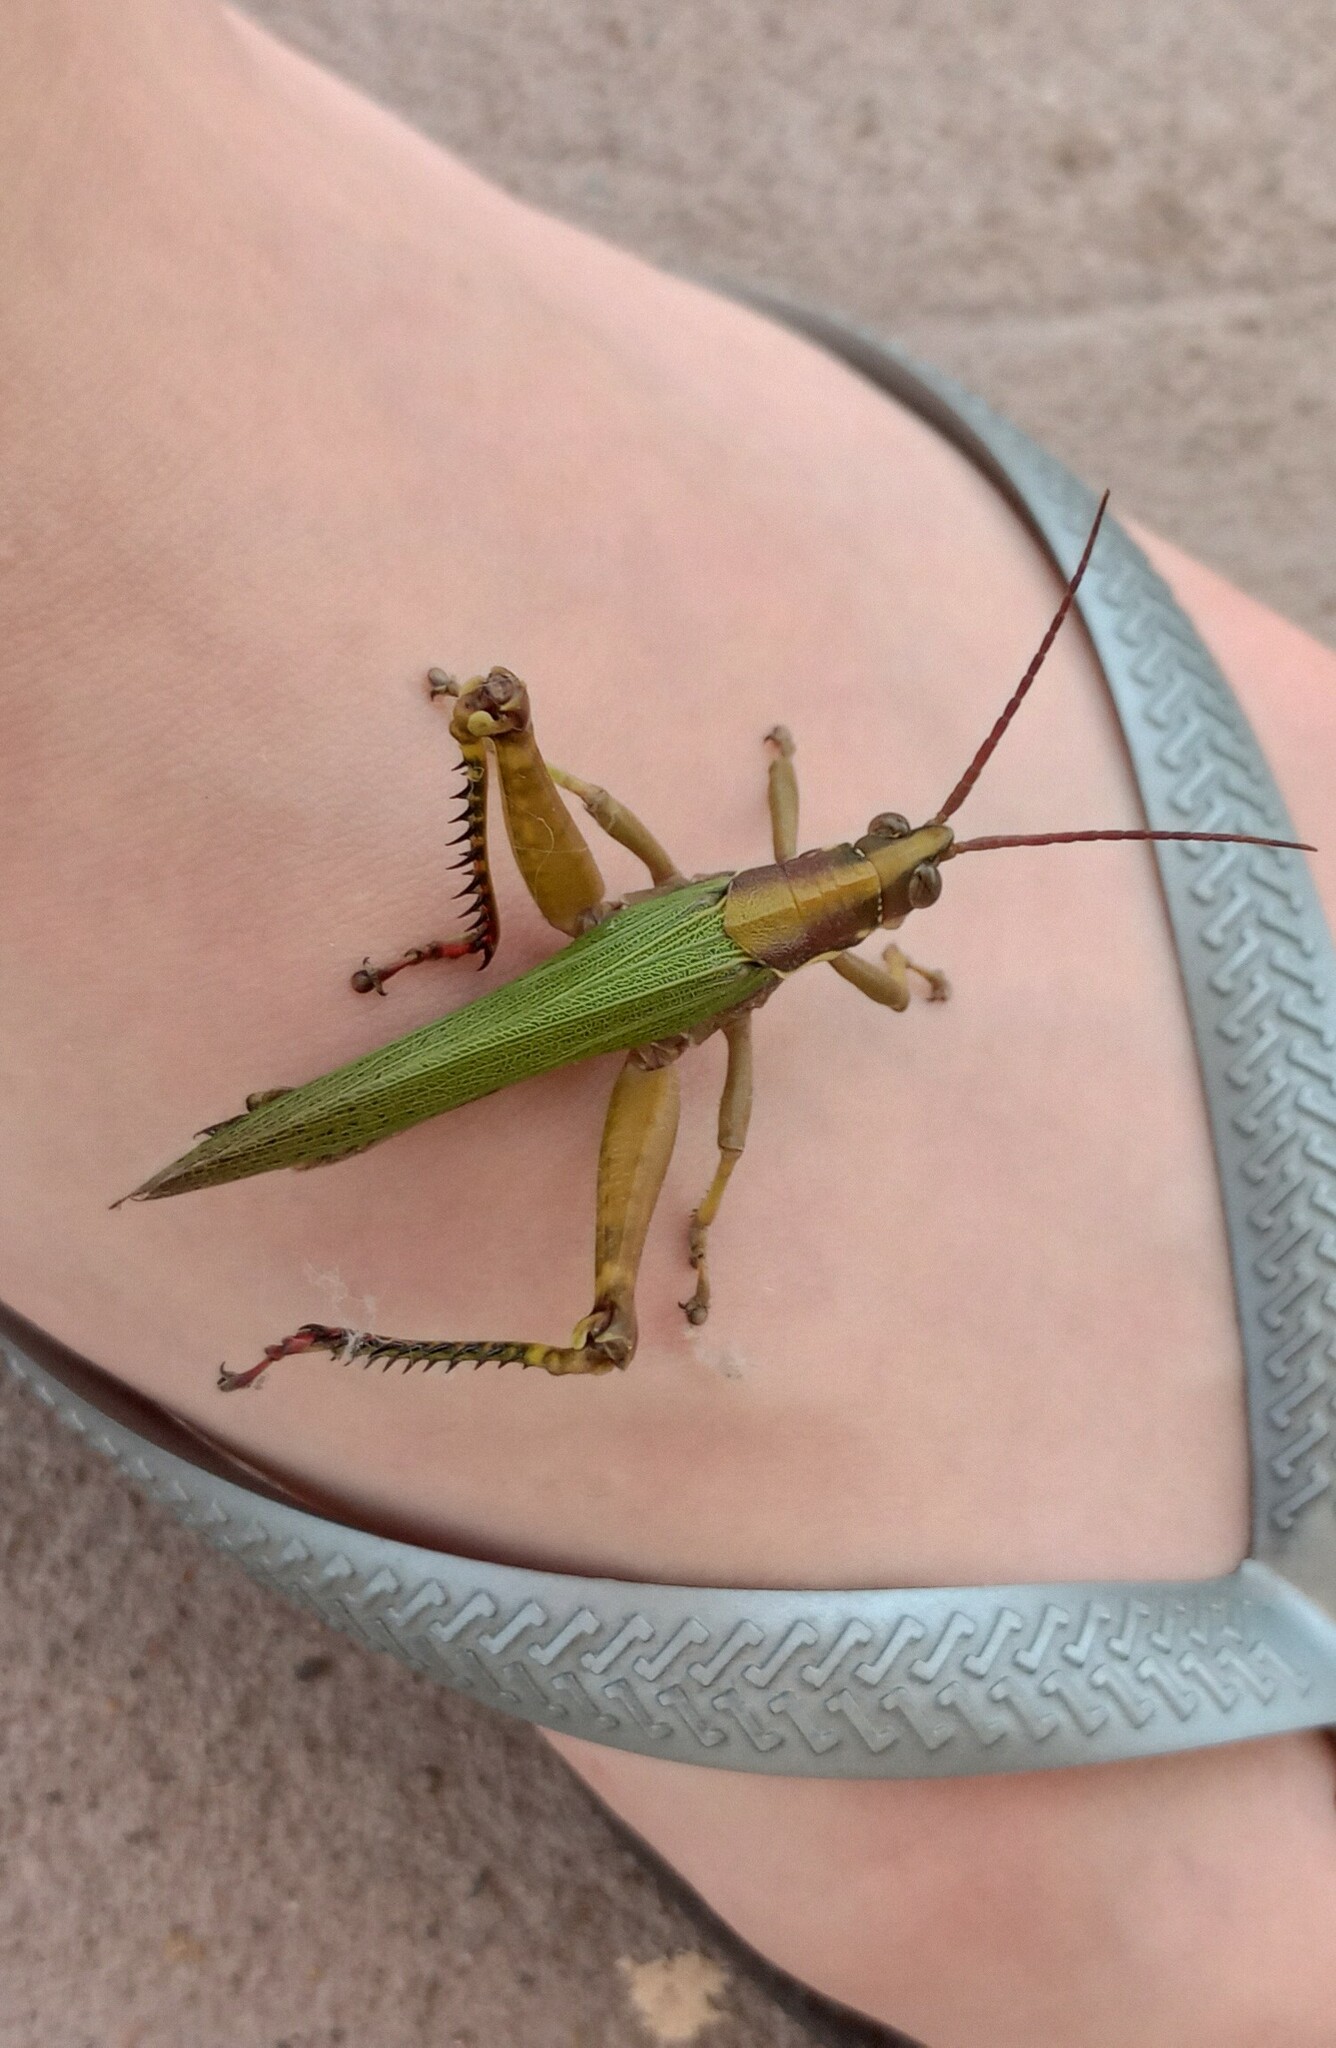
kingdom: Animalia
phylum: Arthropoda
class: Insecta
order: Orthoptera
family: Romaleidae
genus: Coryacris
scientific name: Coryacris angustipennis
